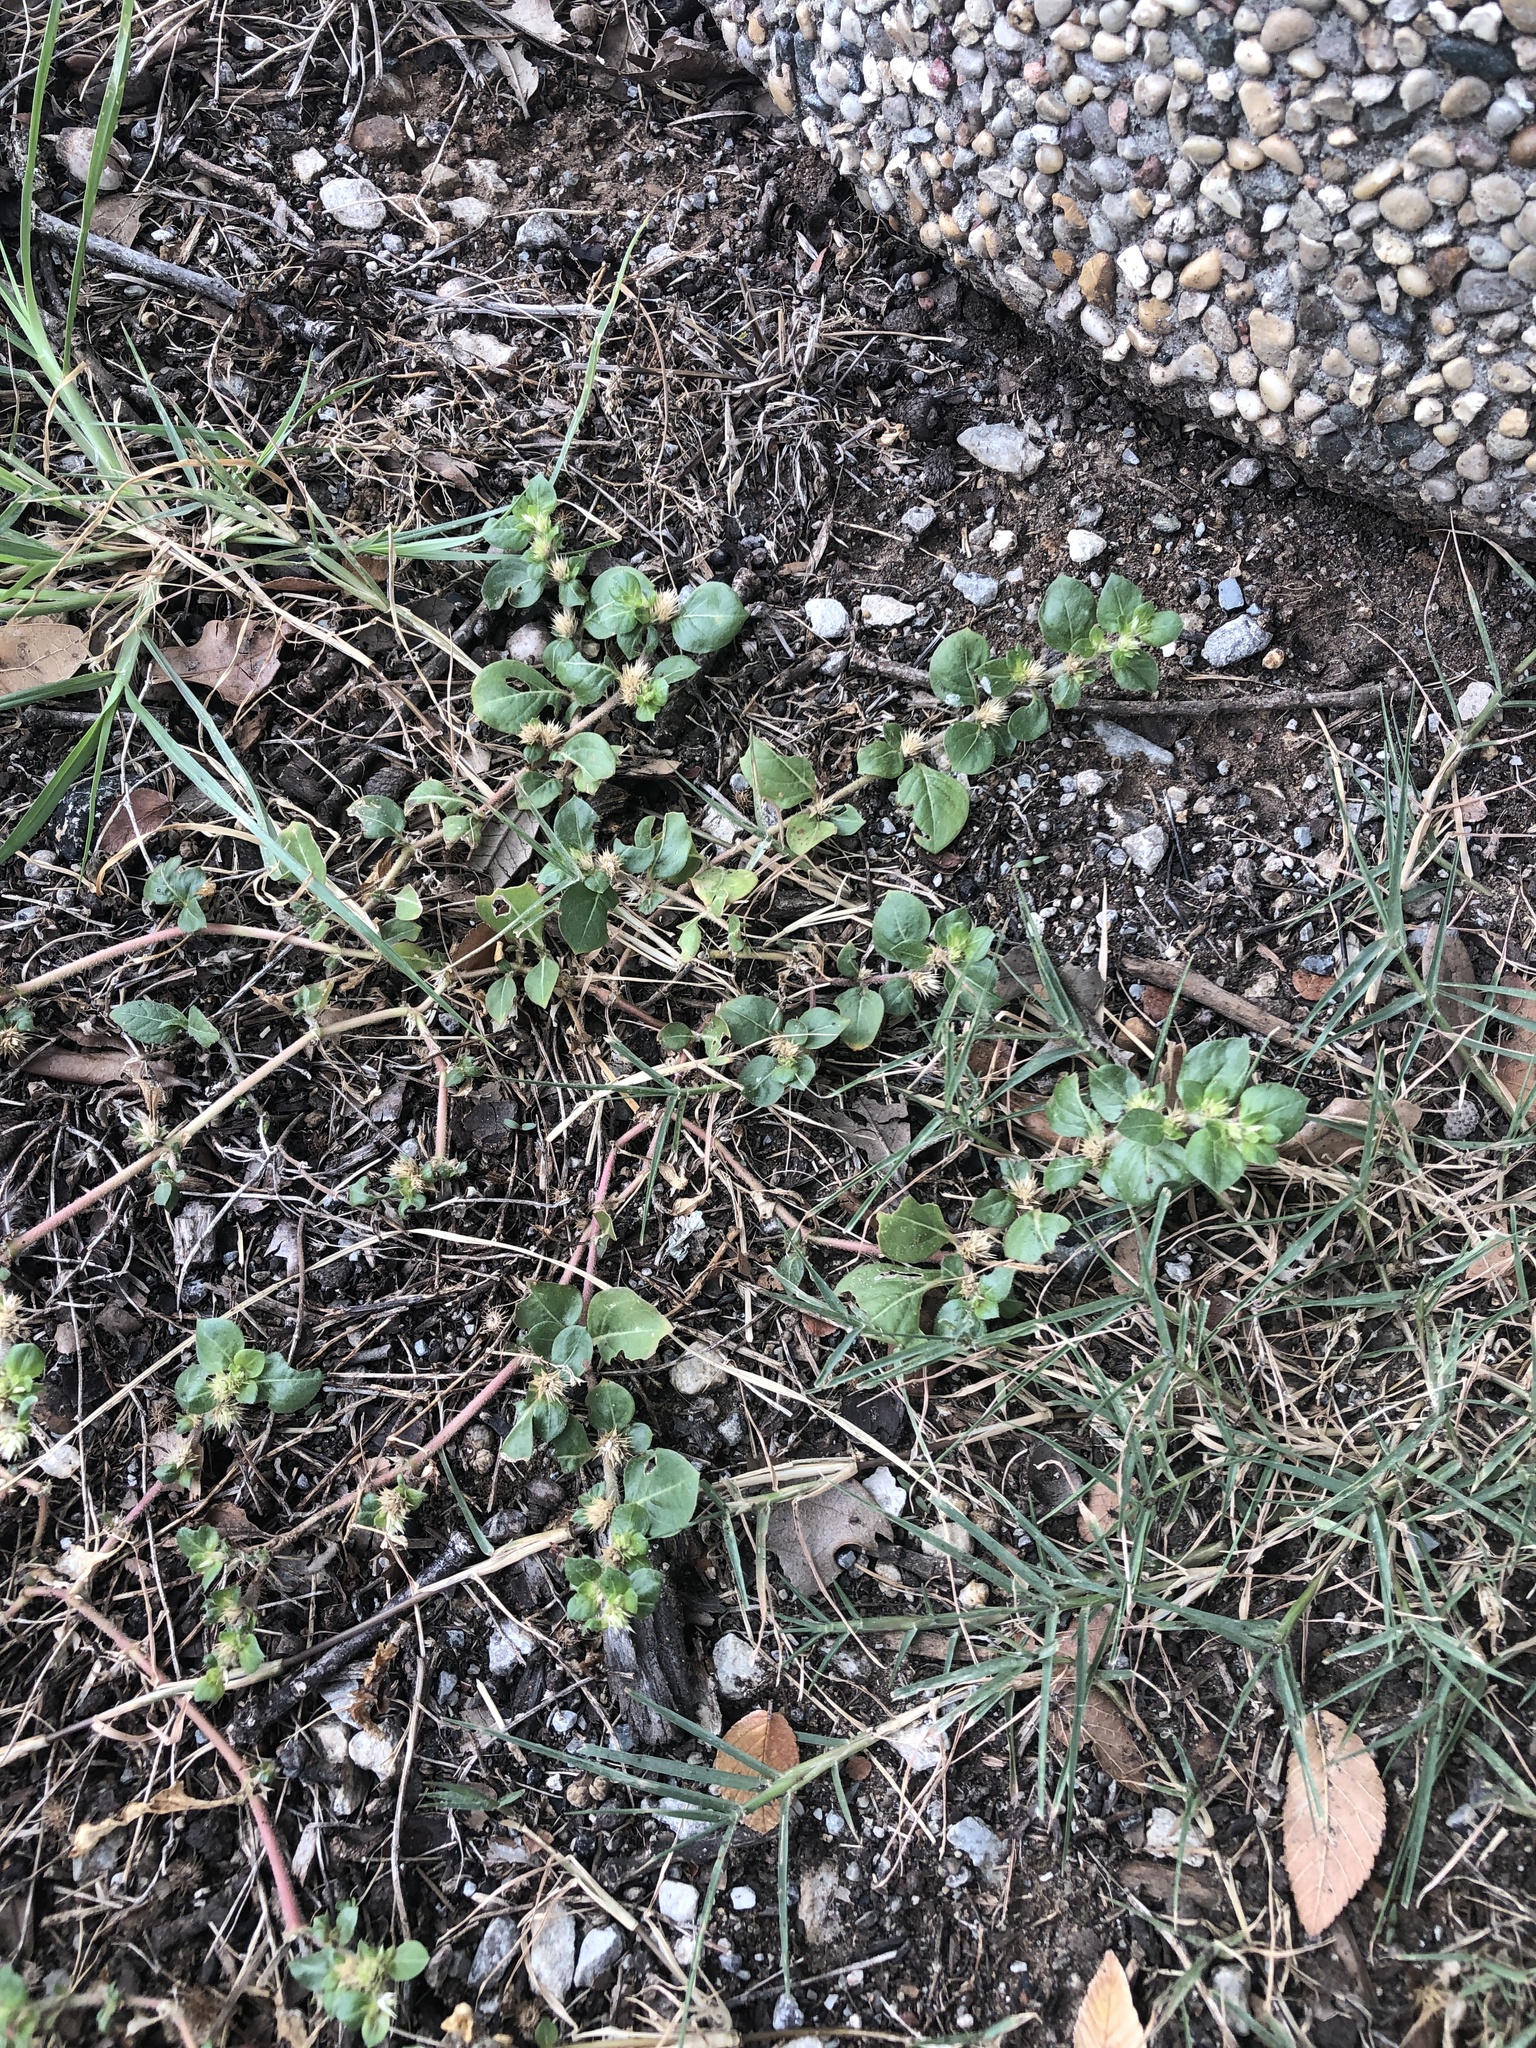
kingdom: Plantae
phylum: Tracheophyta
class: Magnoliopsida
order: Caryophyllales
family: Amaranthaceae
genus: Alternanthera
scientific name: Alternanthera pungens
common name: Khakiweed
